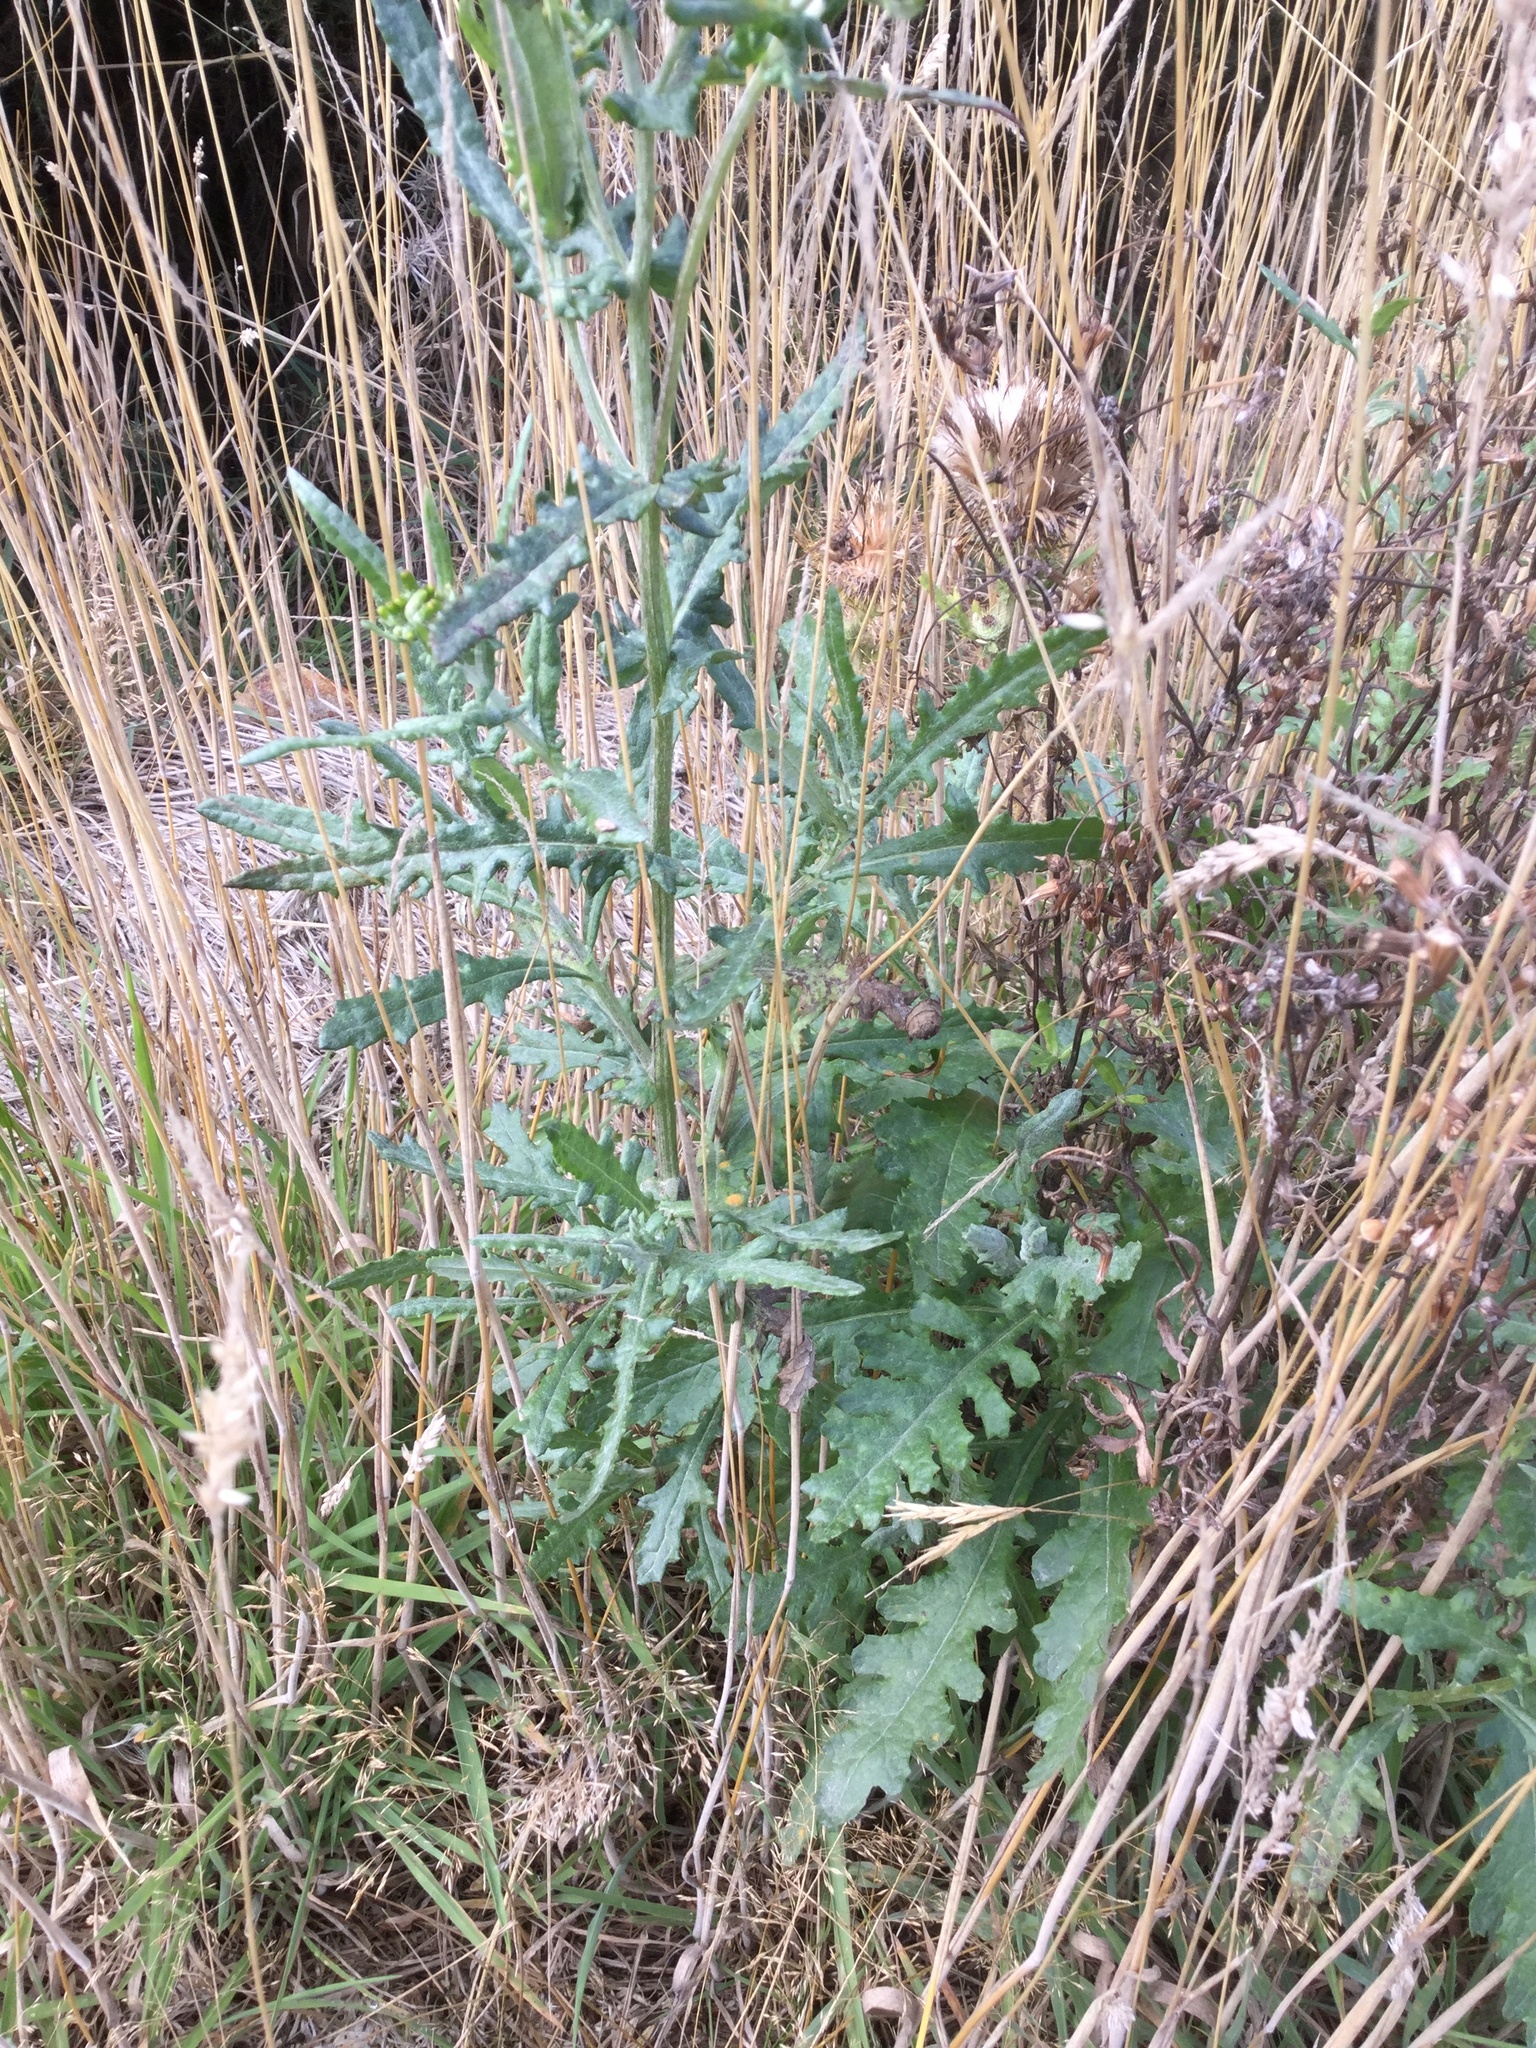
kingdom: Plantae
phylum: Tracheophyta
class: Magnoliopsida
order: Asterales
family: Asteraceae
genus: Senecio
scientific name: Senecio glomeratus
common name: Cutleaf burnweed
